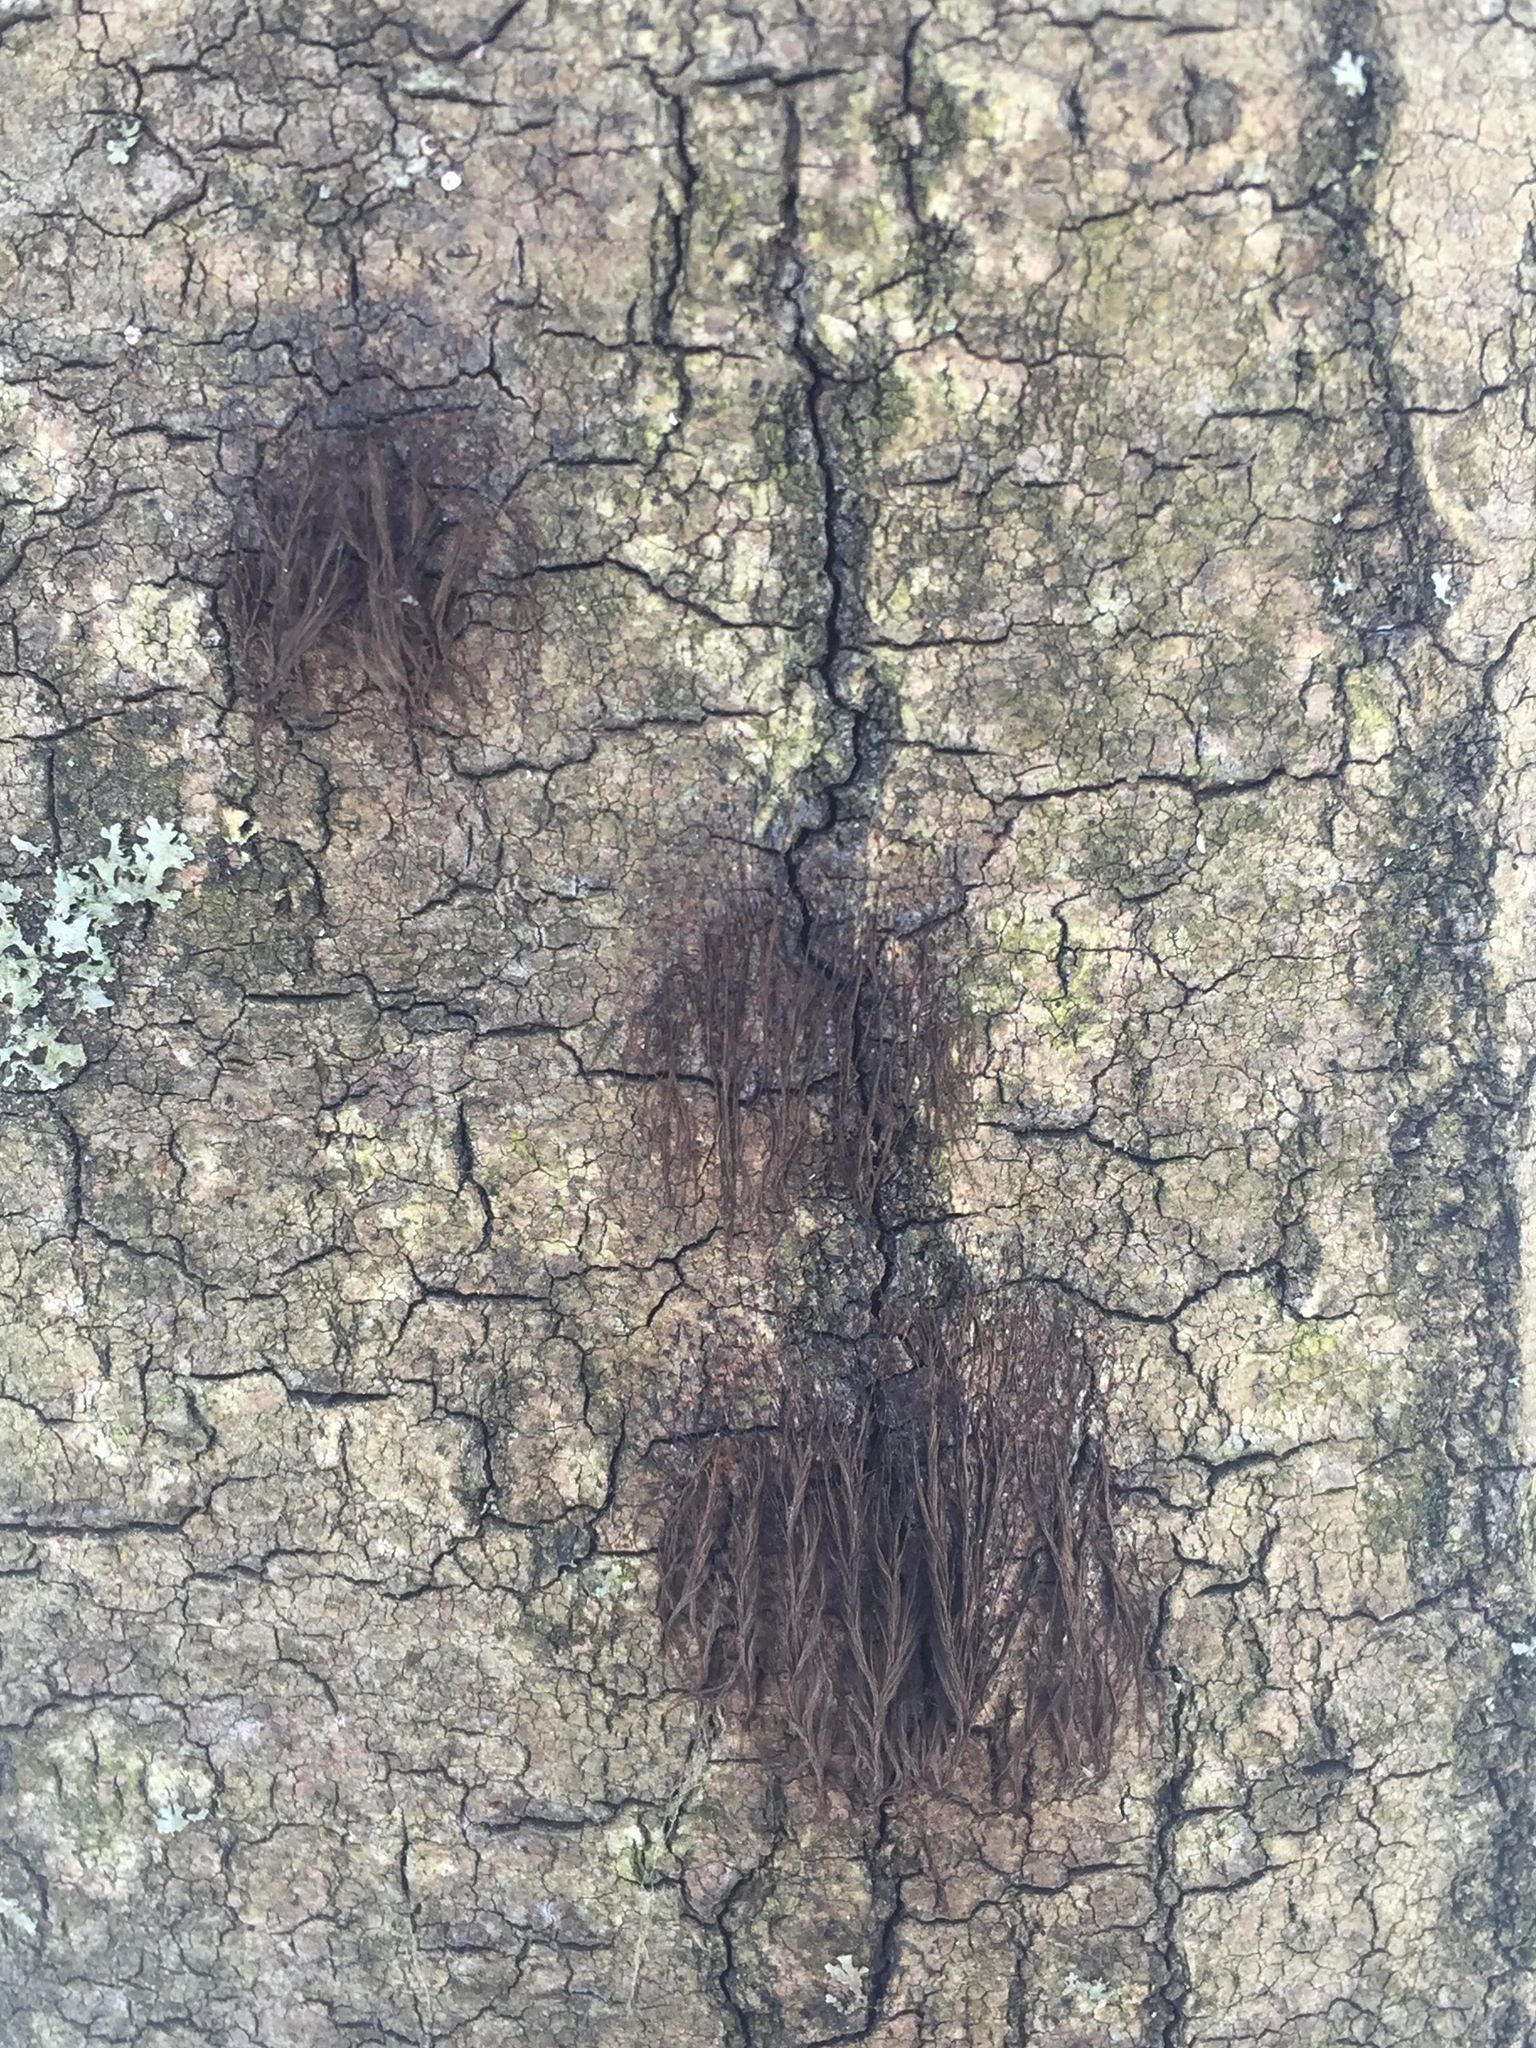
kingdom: Protozoa
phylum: Mycetozoa
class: Myxomycetes
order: Stemonitidales
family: Stemonitidaceae
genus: Stemonaria
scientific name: Stemonaria longa
